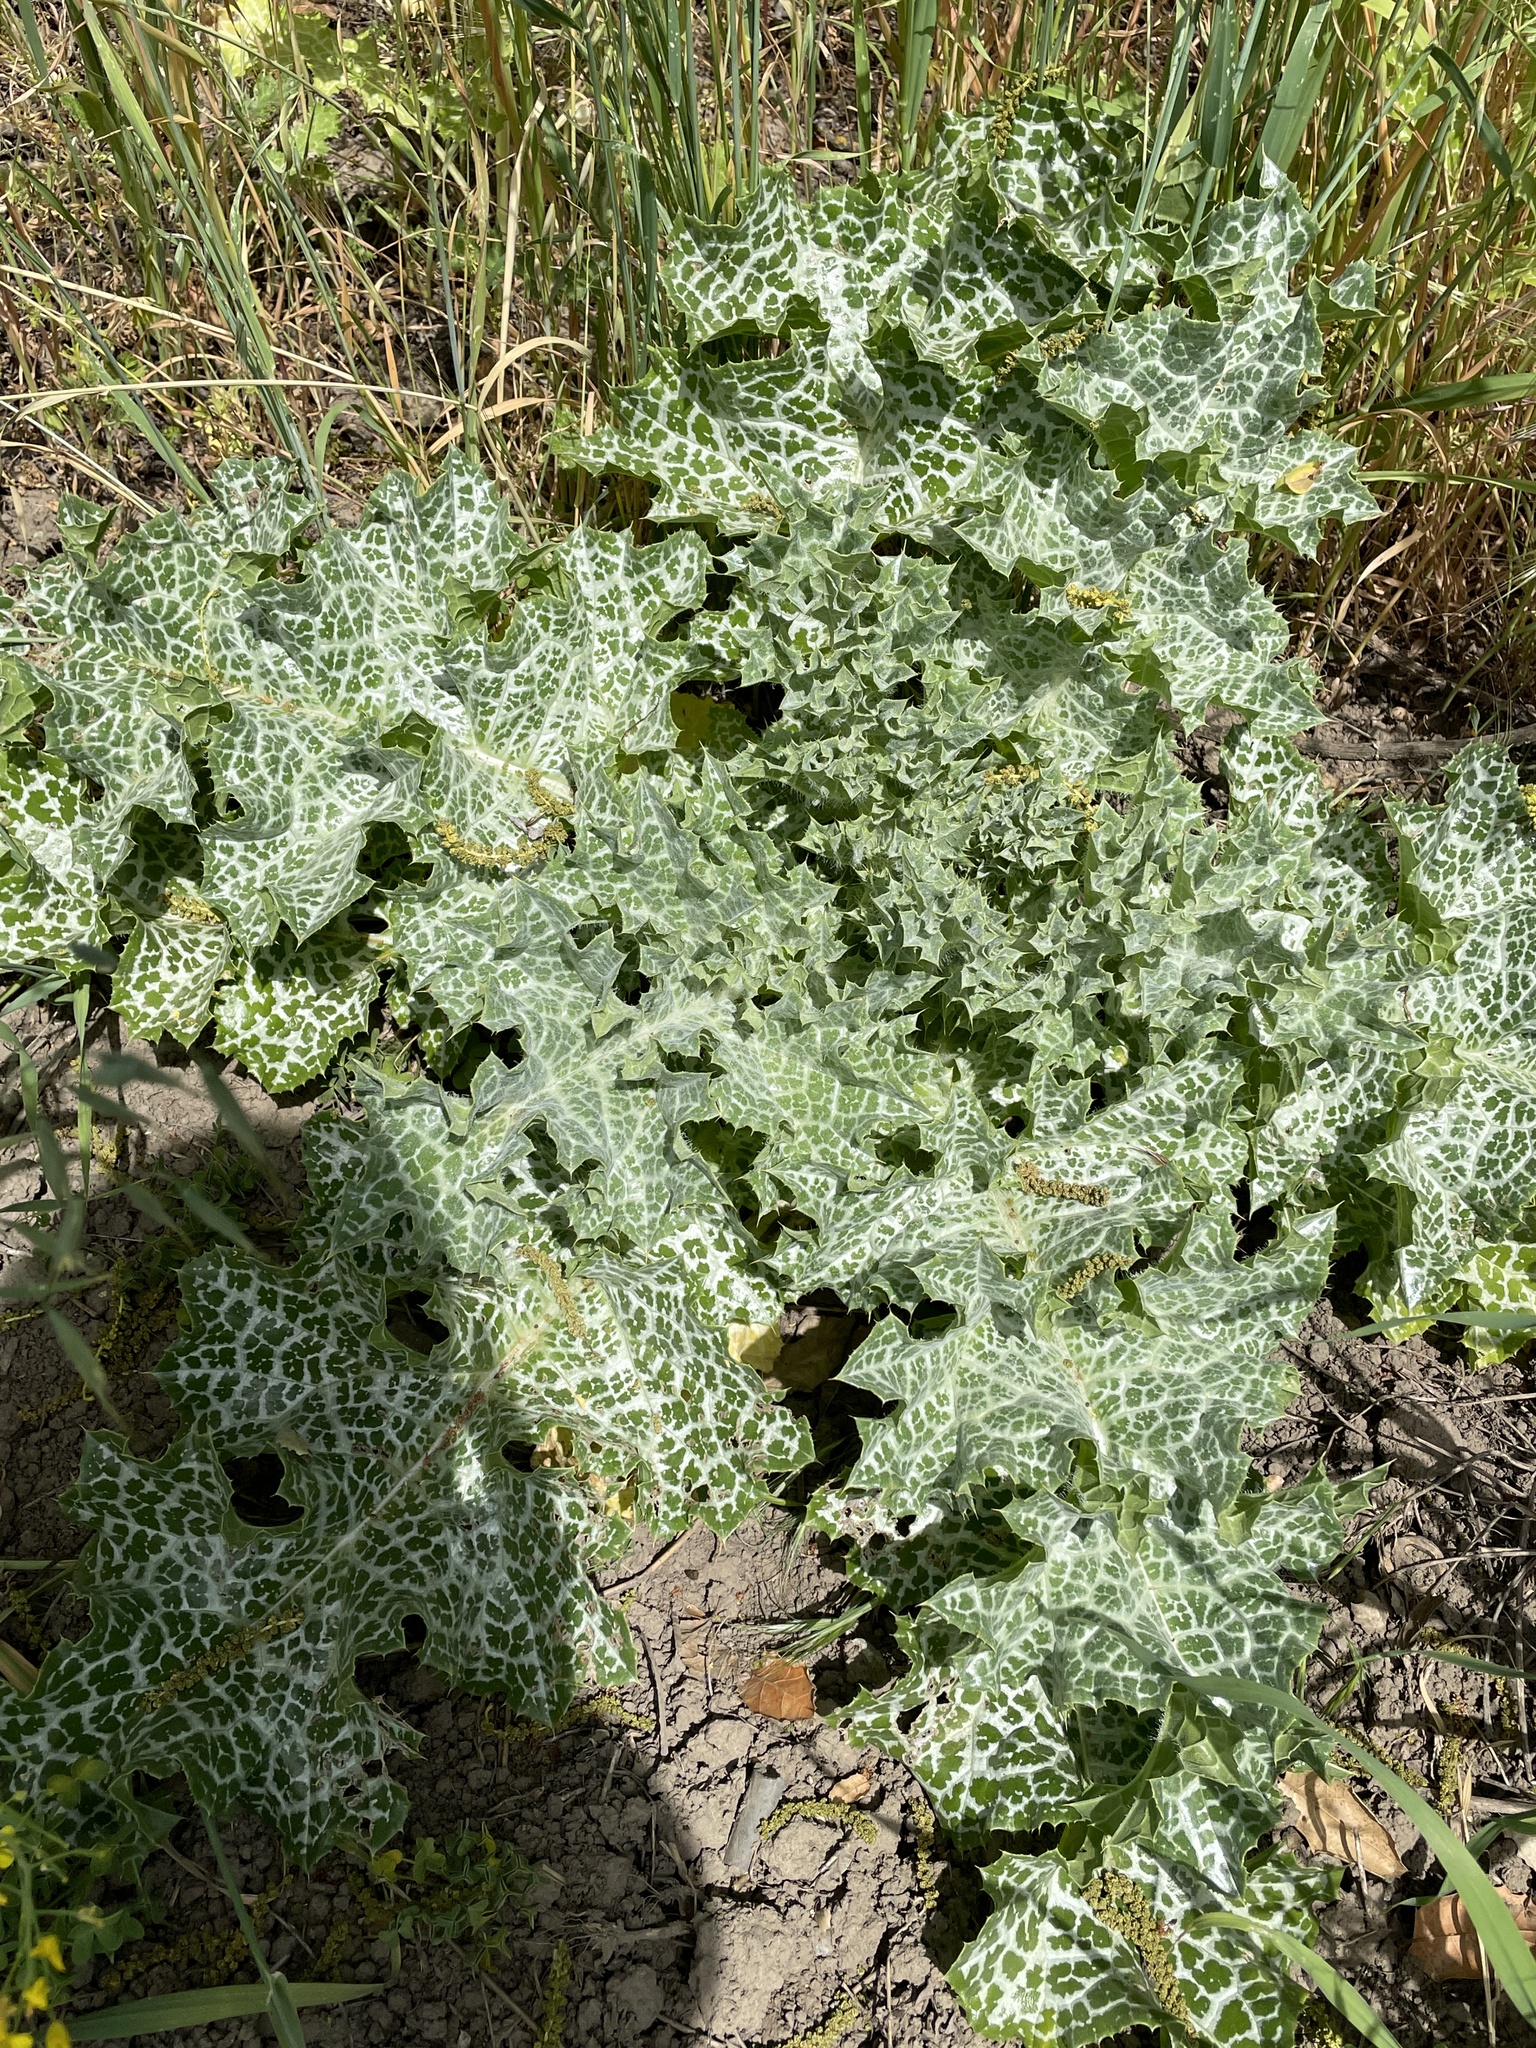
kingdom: Plantae
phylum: Tracheophyta
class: Magnoliopsida
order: Asterales
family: Asteraceae
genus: Silybum
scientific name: Silybum marianum
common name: Milk thistle
